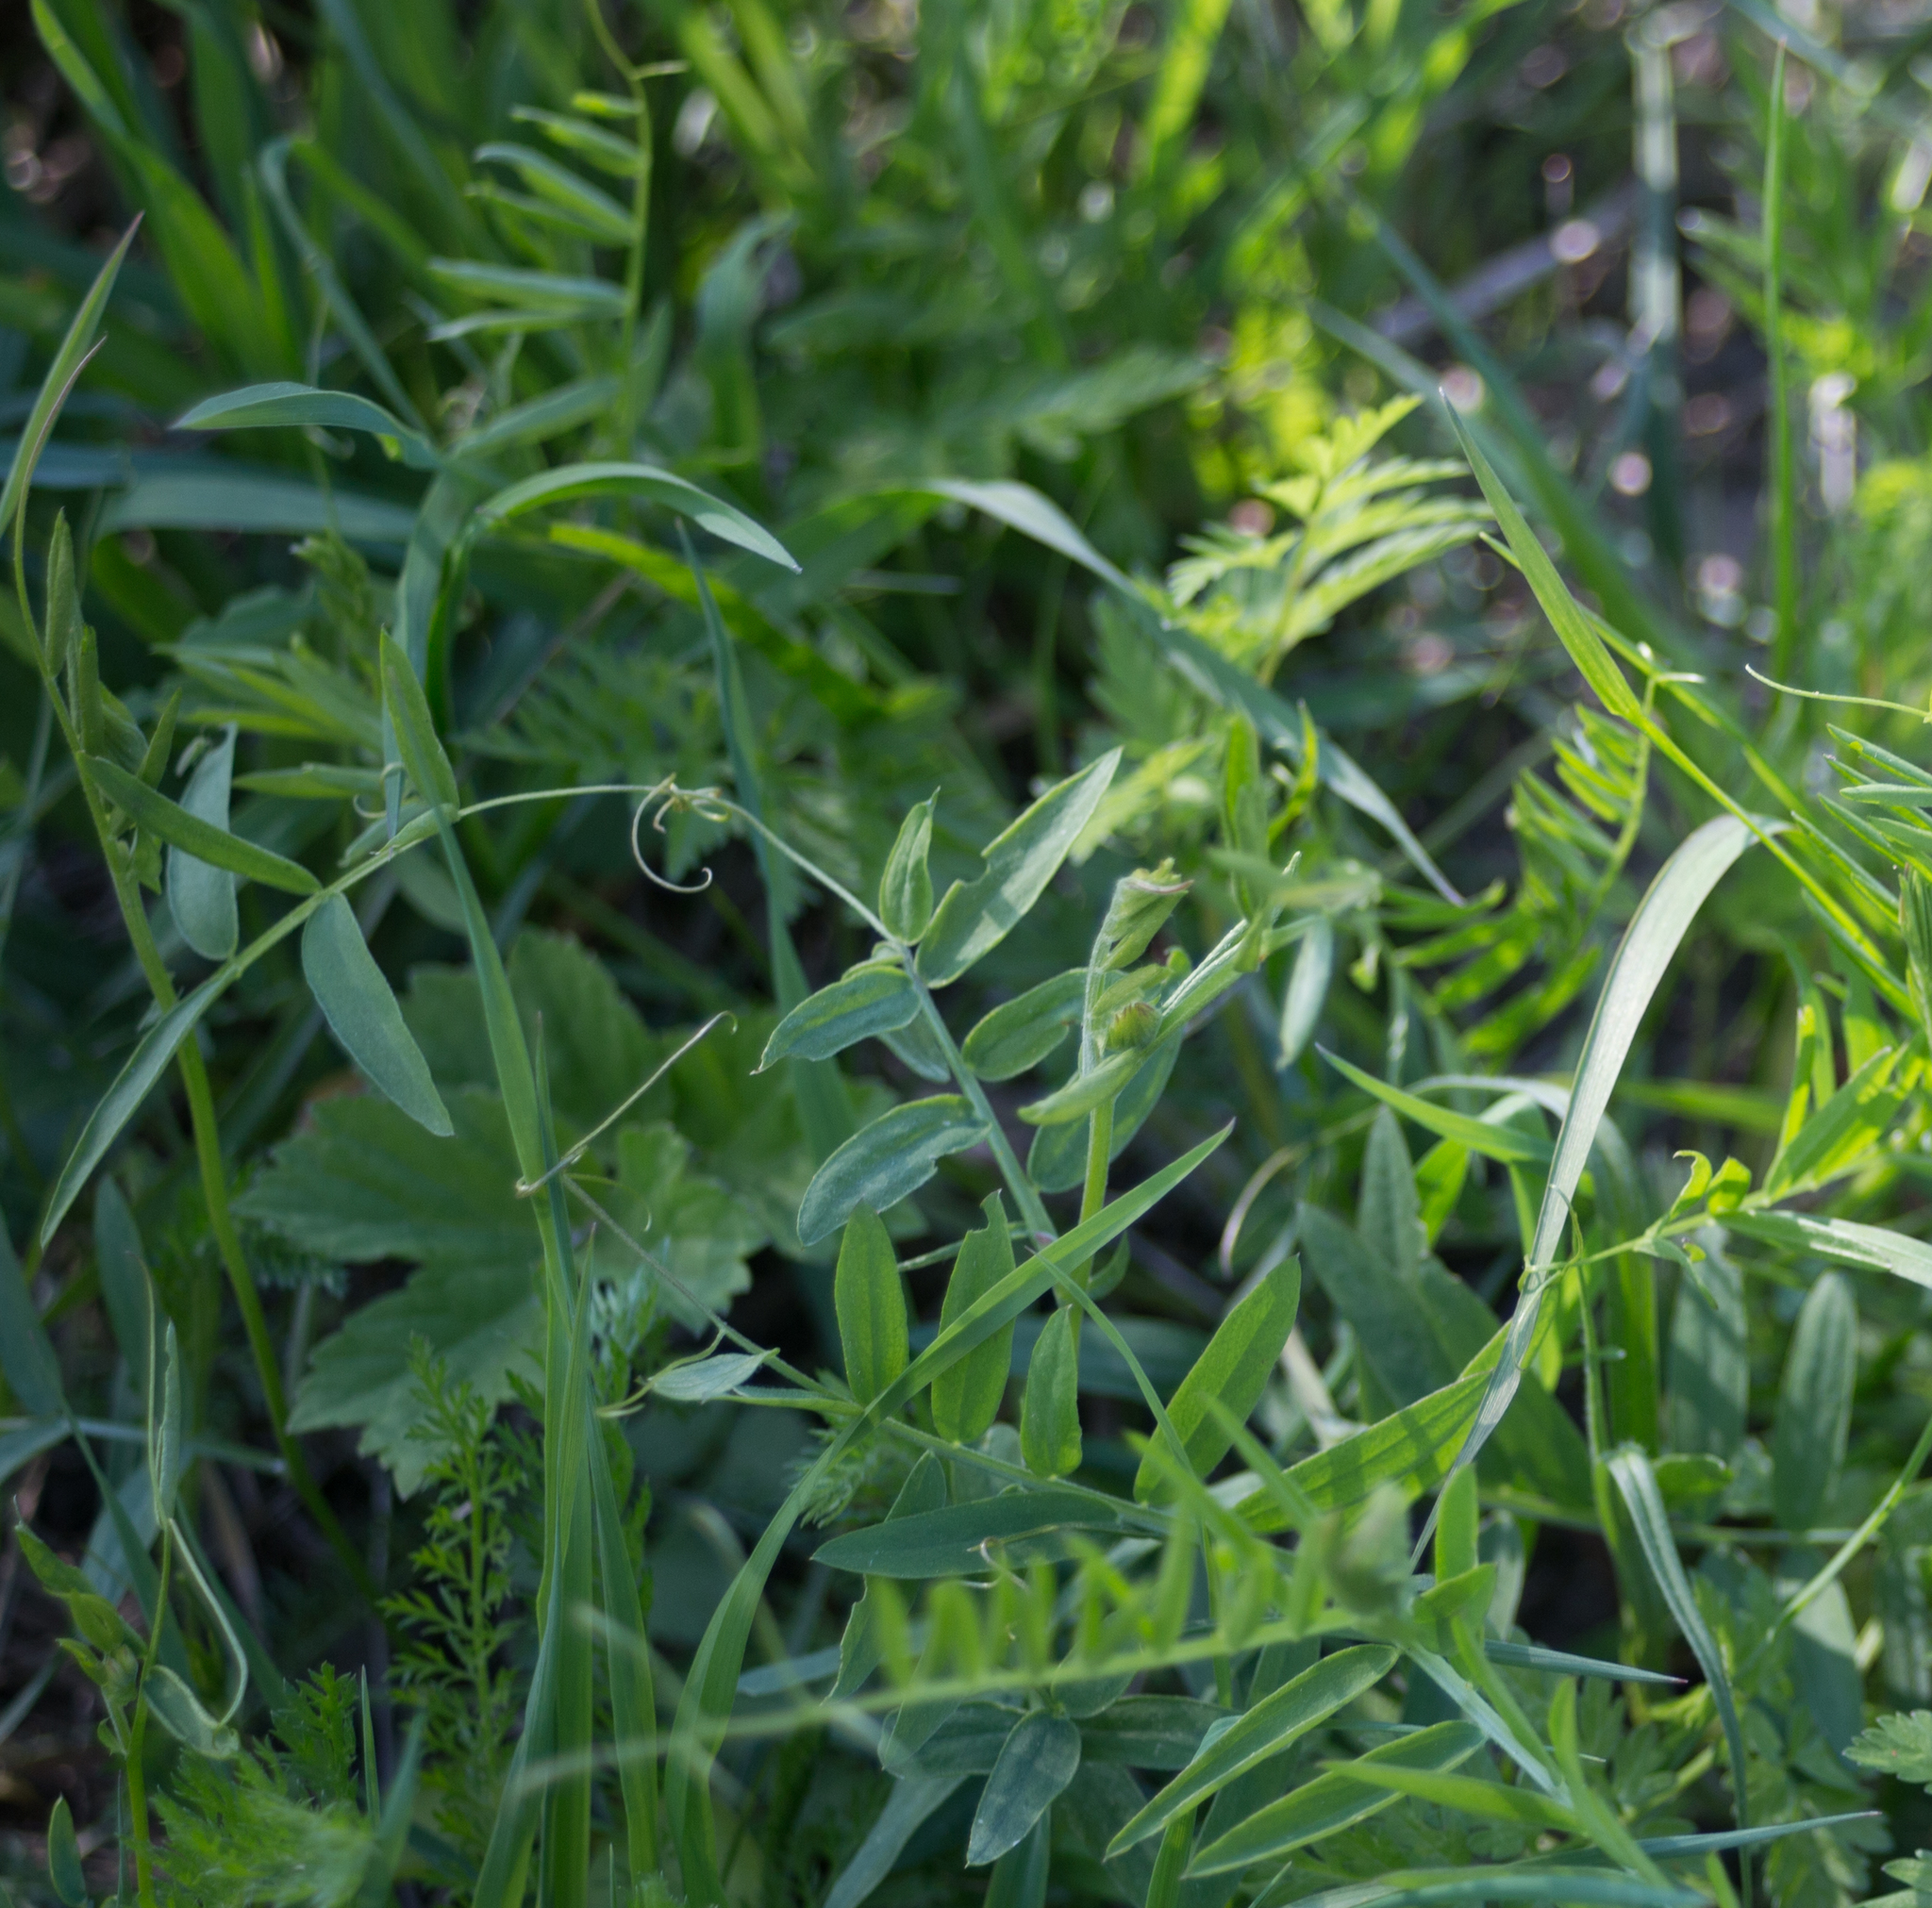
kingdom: Plantae
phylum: Tracheophyta
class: Magnoliopsida
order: Fabales
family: Fabaceae
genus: Vicia
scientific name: Vicia cracca
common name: Bird vetch
